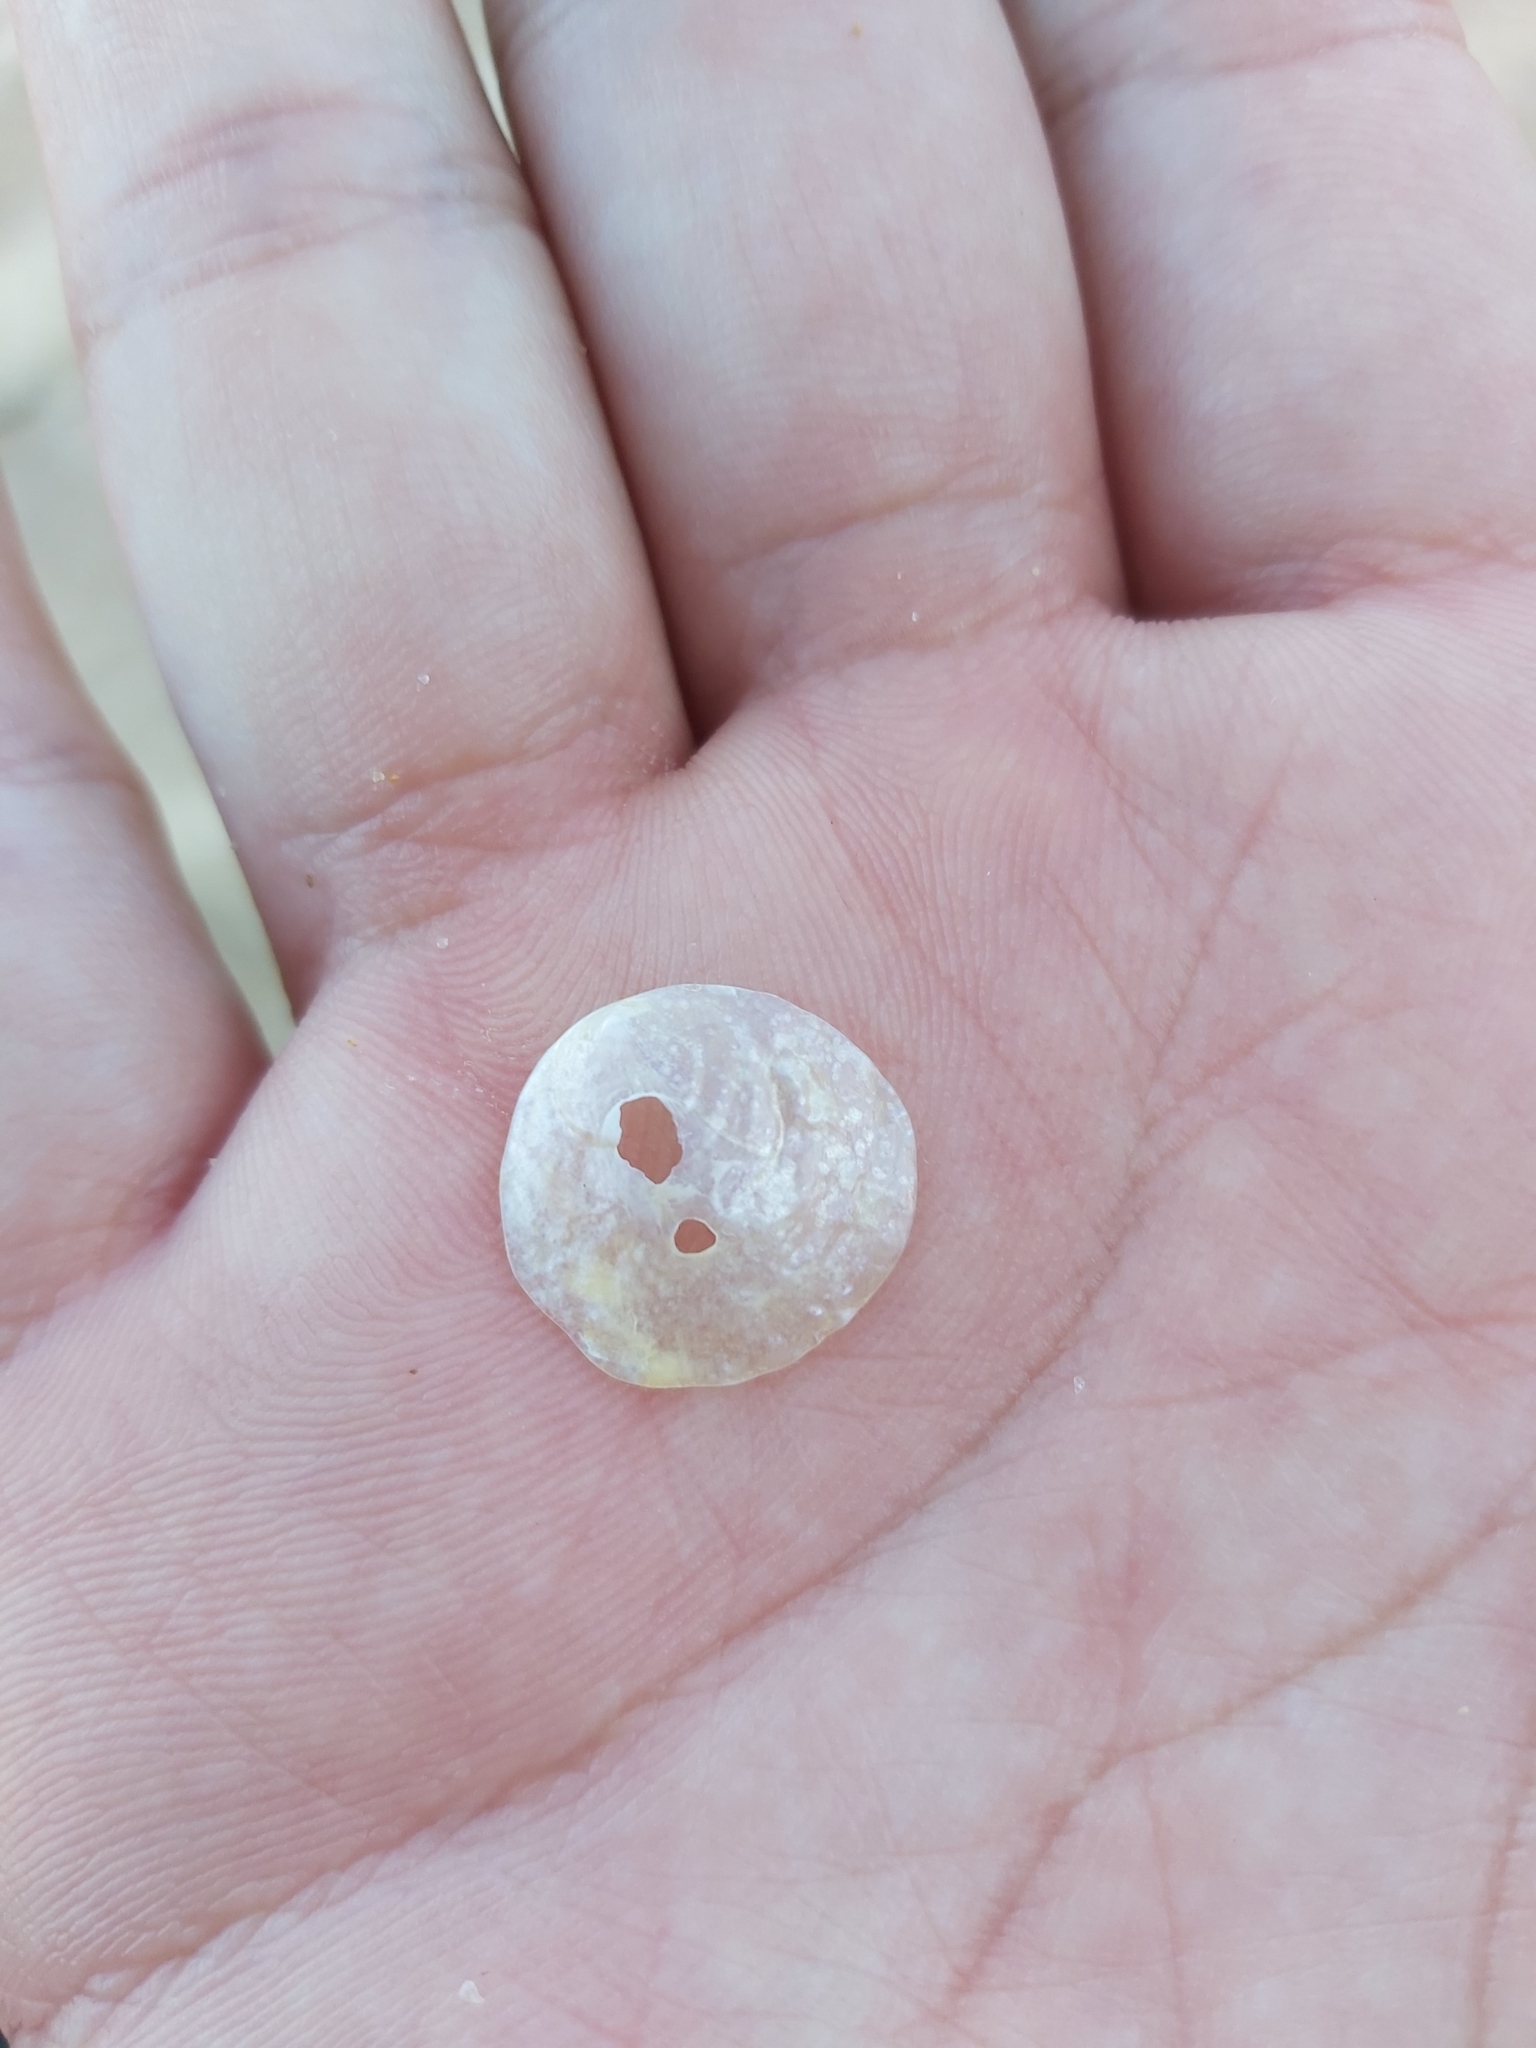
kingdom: Animalia
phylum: Mollusca
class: Bivalvia
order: Pectinida
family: Anomiidae
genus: Anomia
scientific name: Anomia trigonopsis
